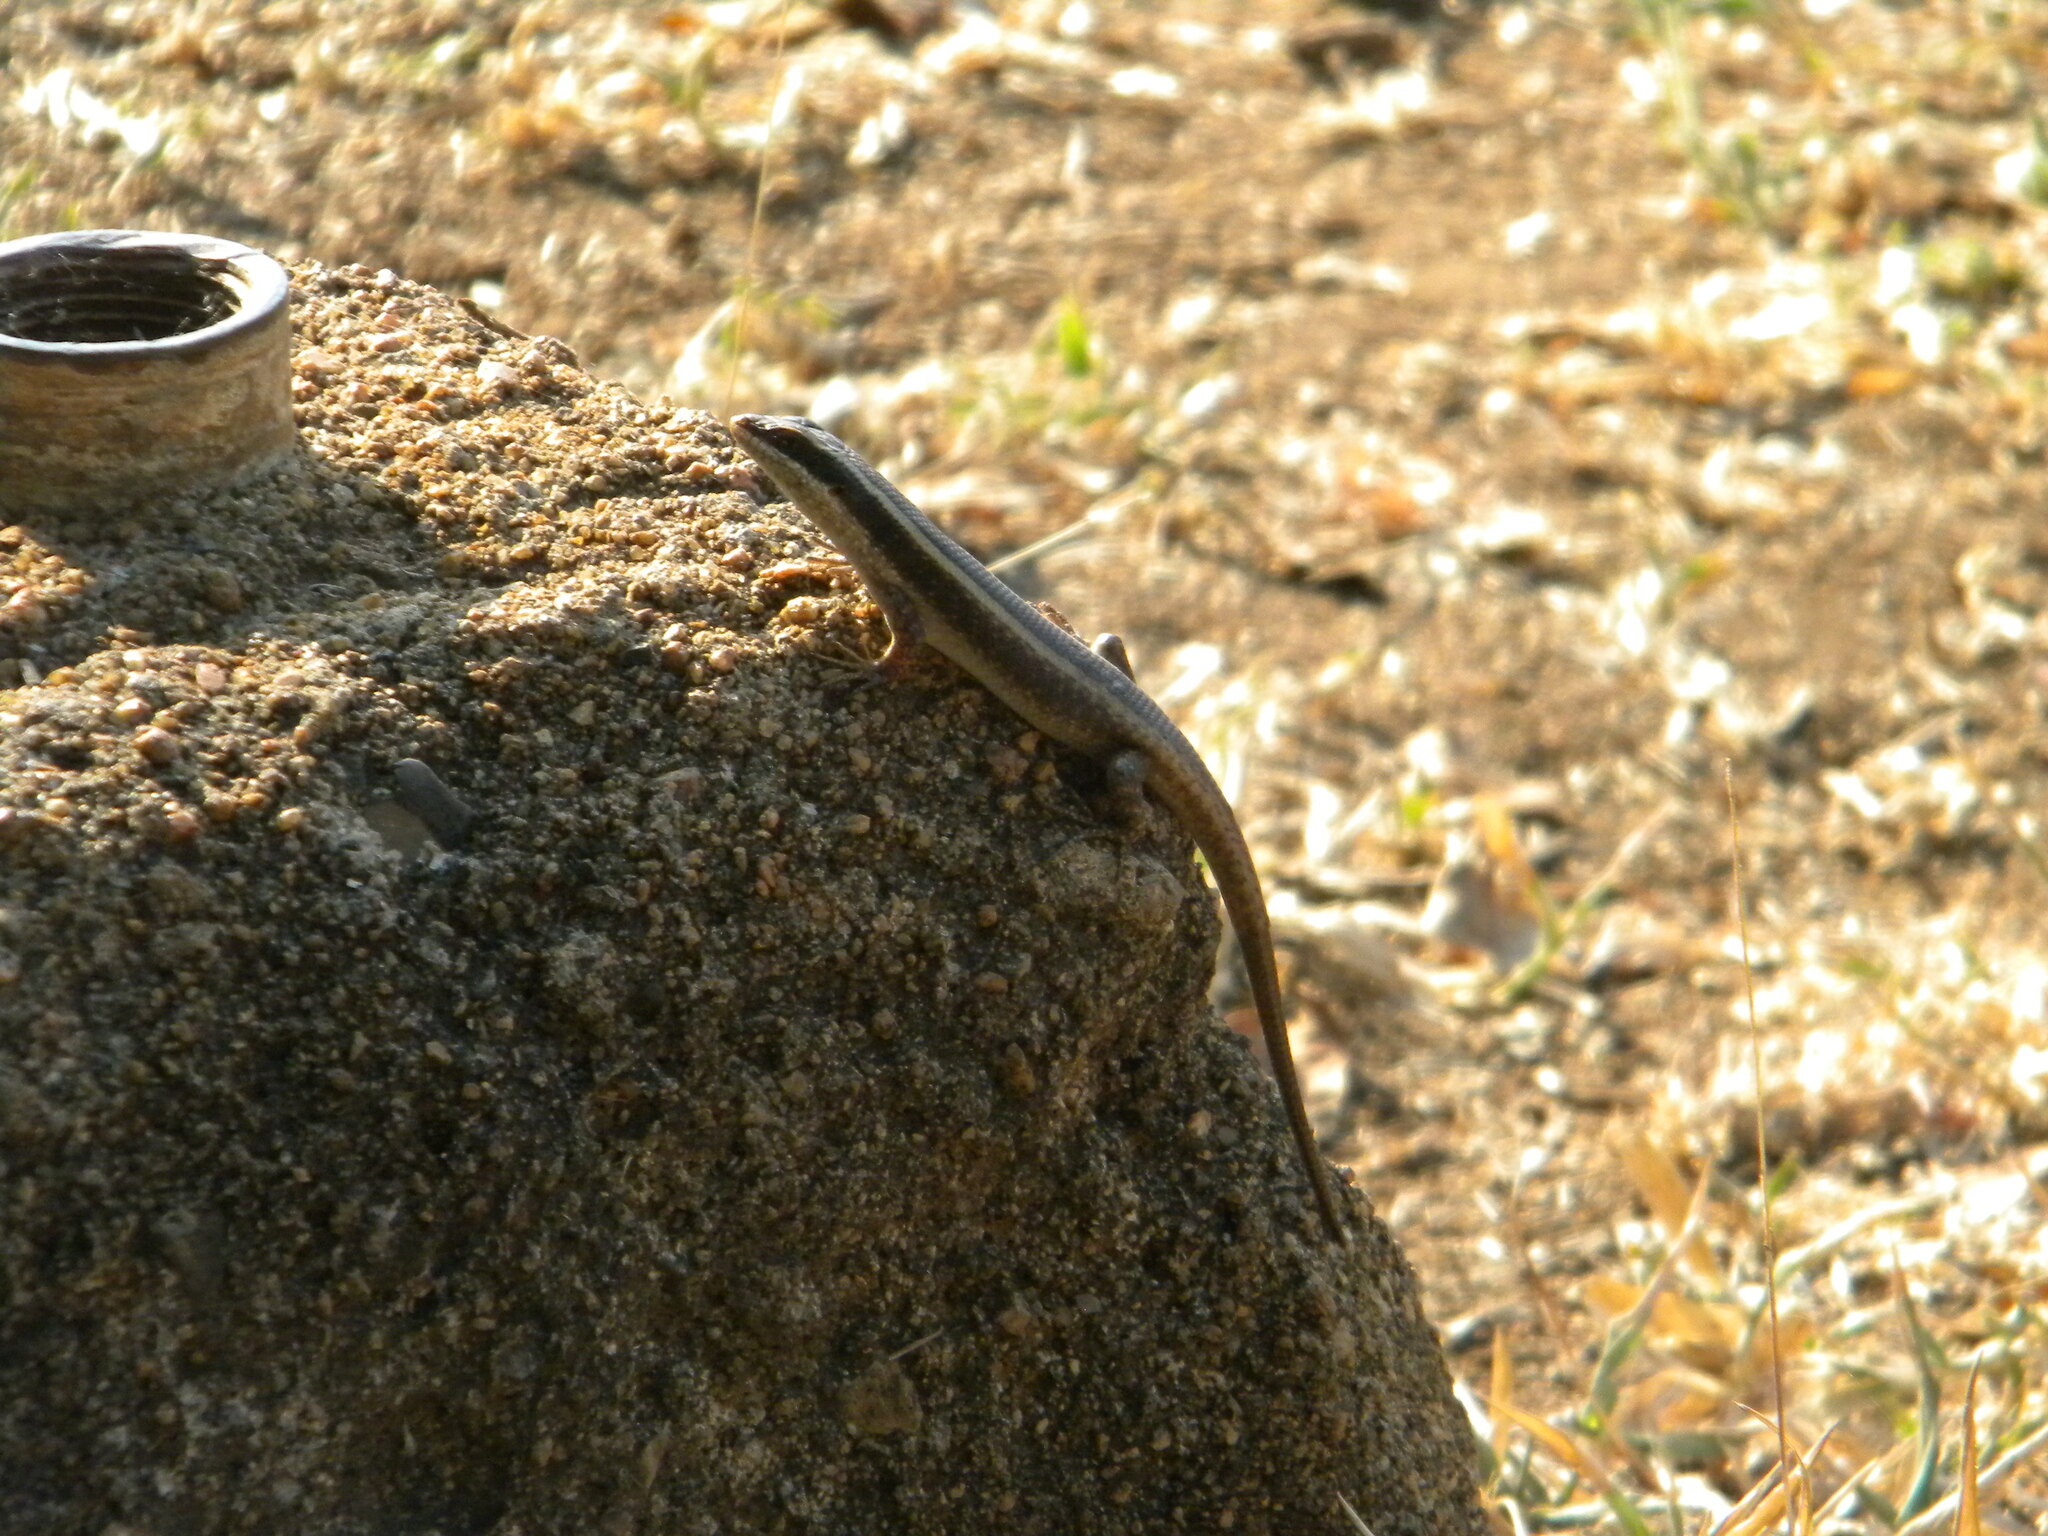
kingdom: Animalia
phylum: Chordata
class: Squamata
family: Scincidae
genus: Trachylepis
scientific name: Trachylepis striata
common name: African striped mabuya
